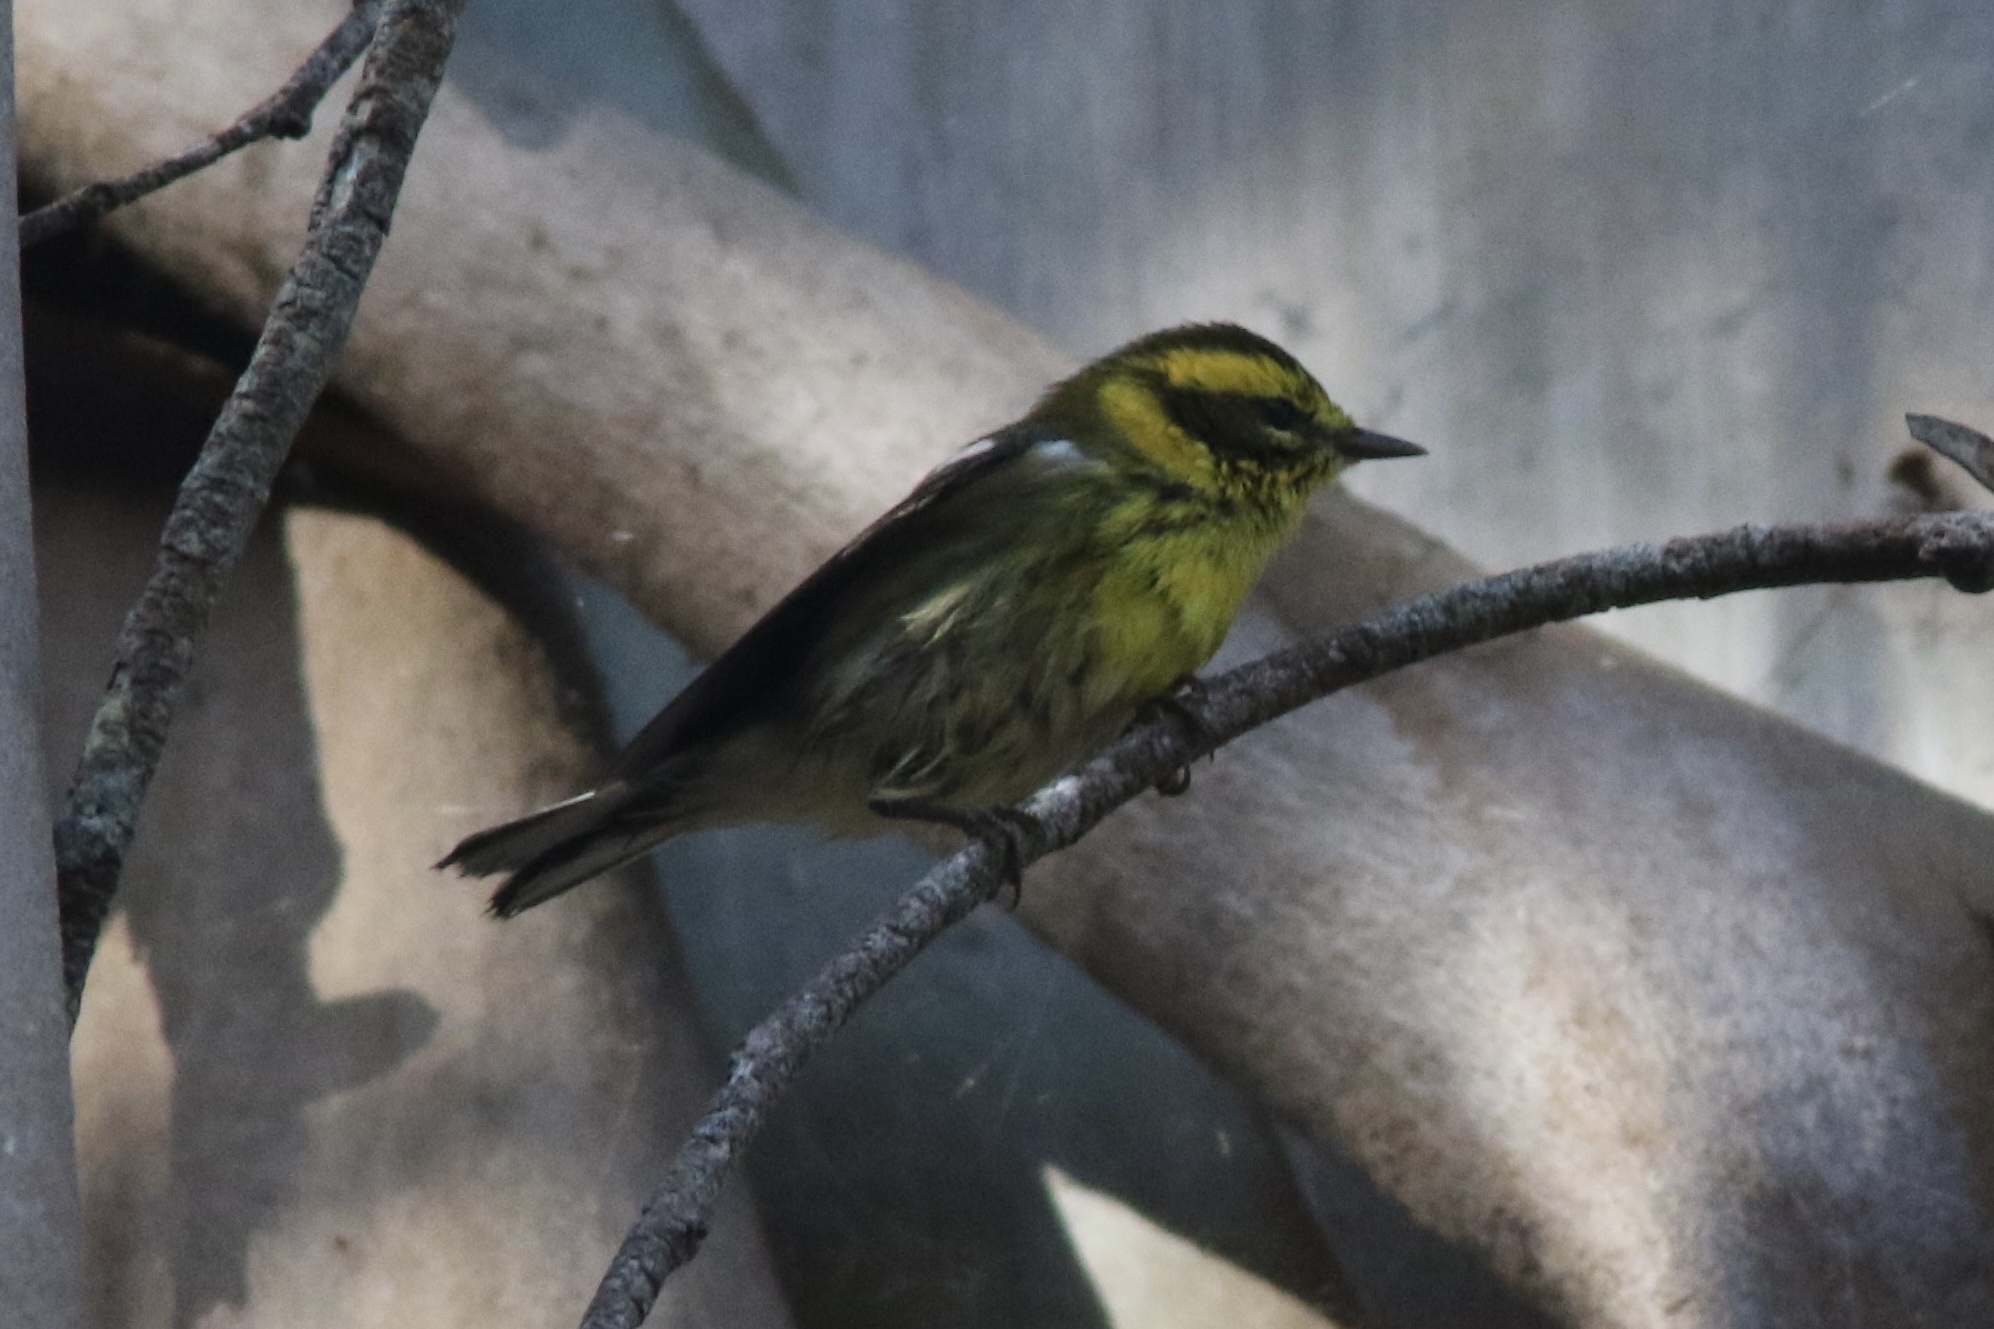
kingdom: Animalia
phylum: Chordata
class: Aves
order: Passeriformes
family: Parulidae
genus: Setophaga
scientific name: Setophaga townsendi
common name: Townsend's warbler
